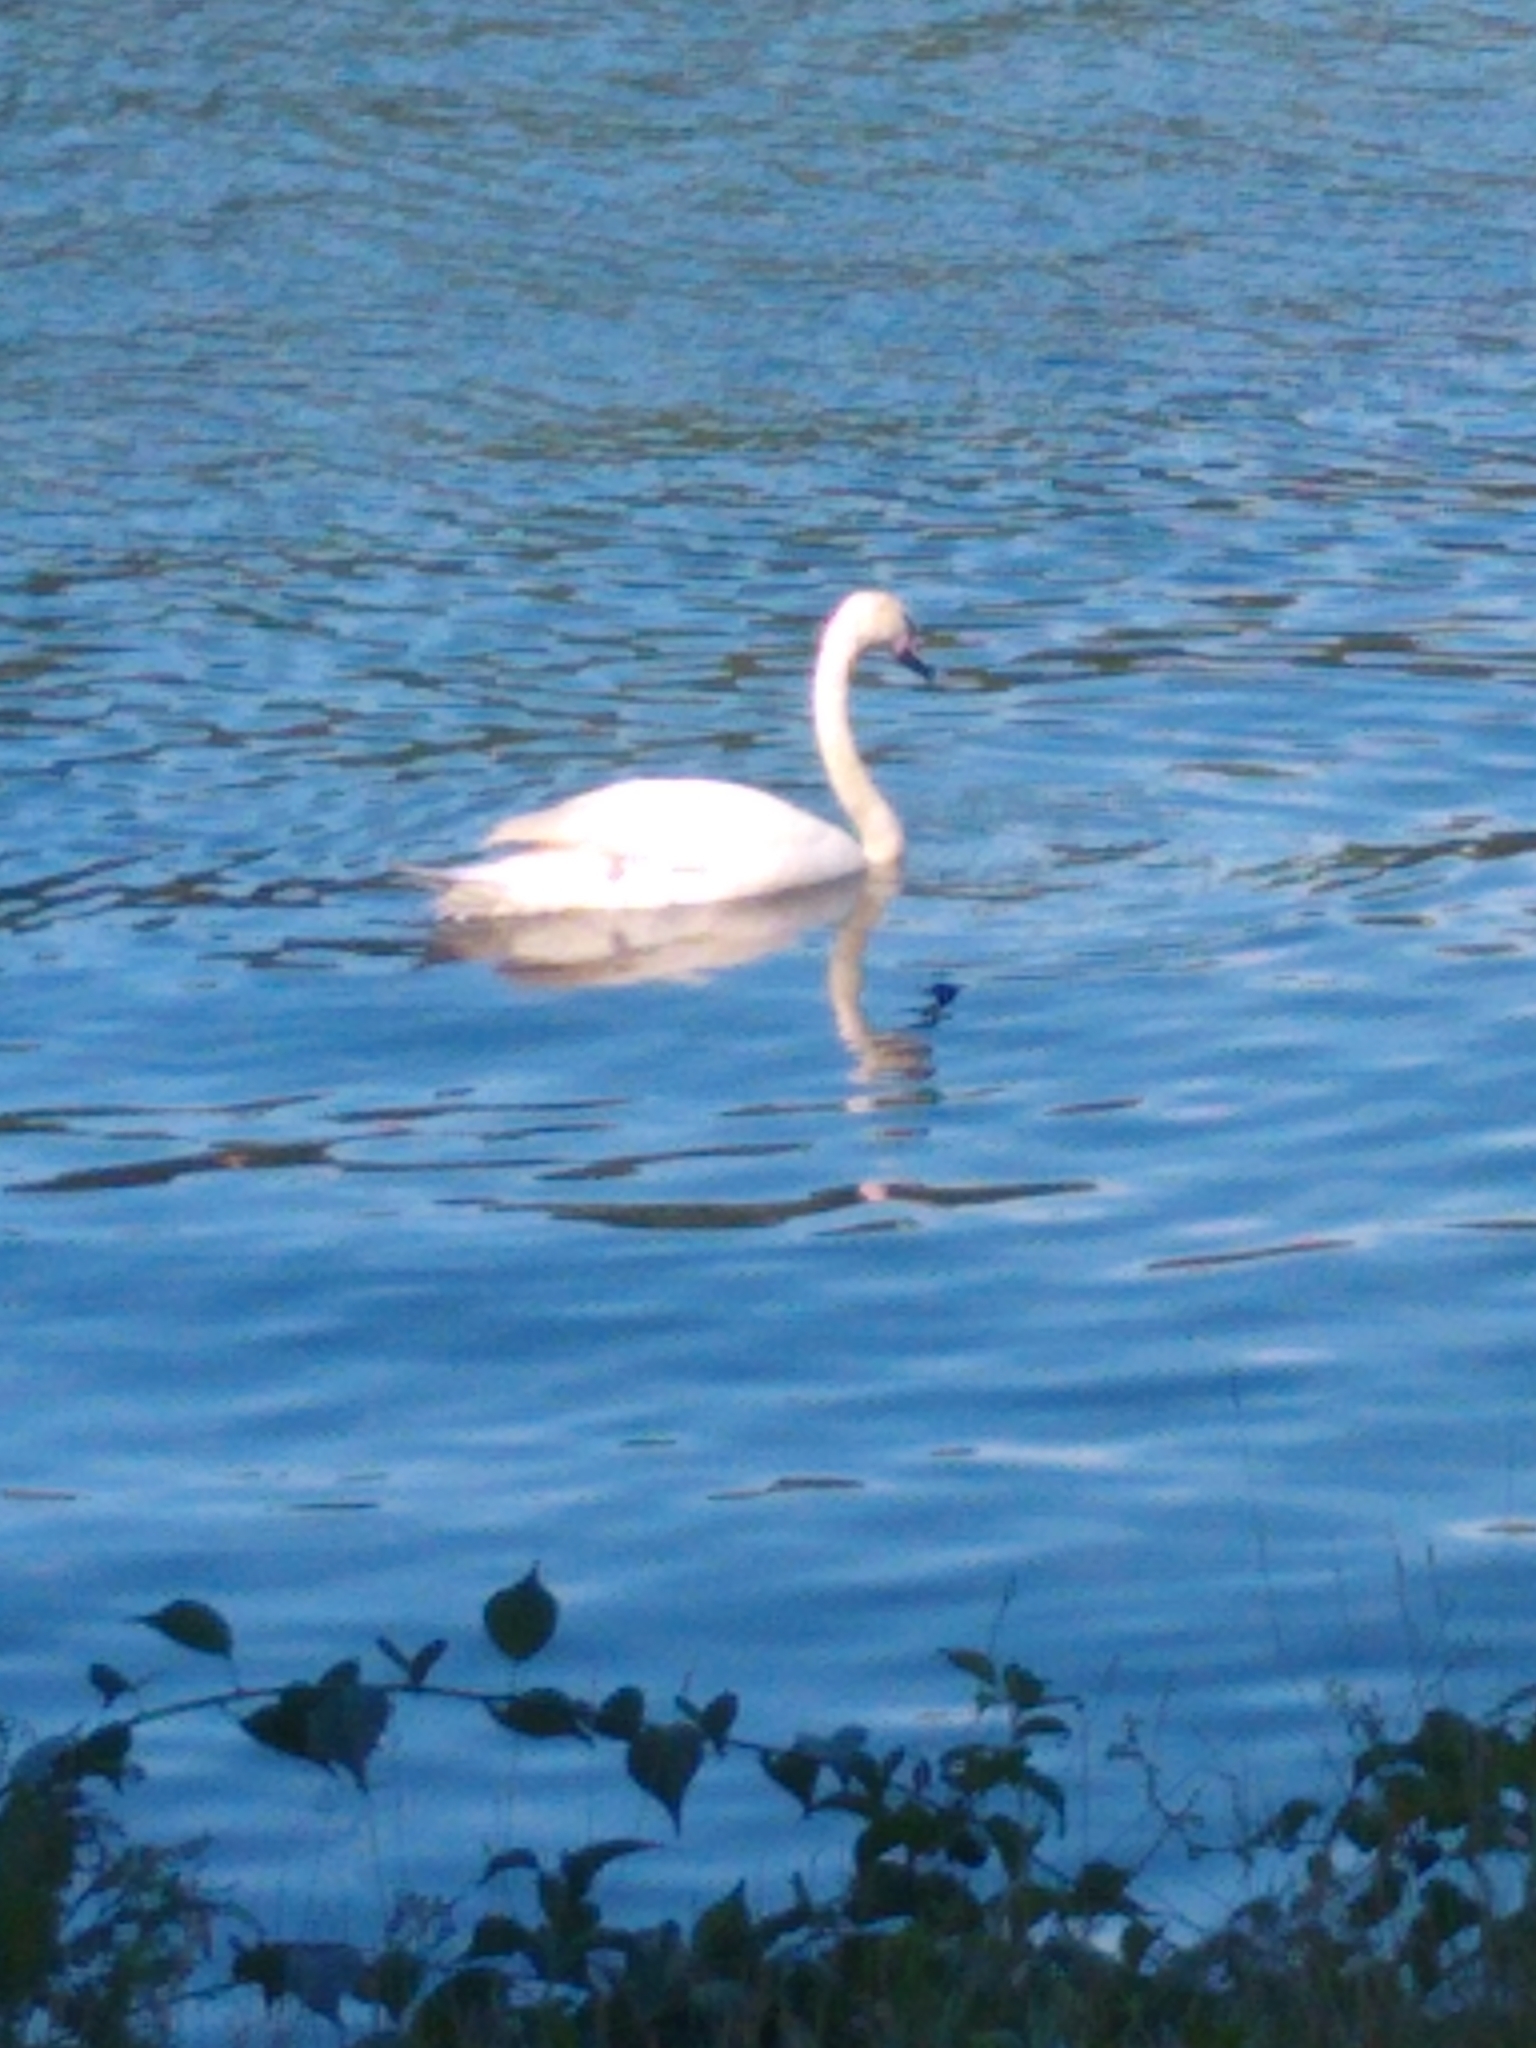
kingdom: Animalia
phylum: Chordata
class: Aves
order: Anseriformes
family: Anatidae
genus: Cygnus
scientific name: Cygnus olor
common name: Mute swan
